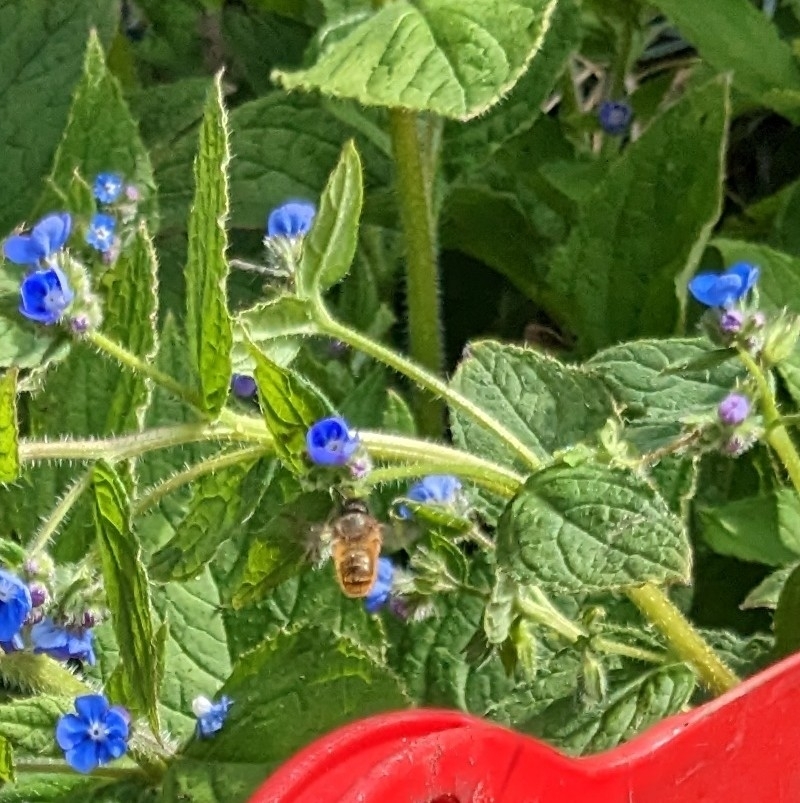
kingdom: Animalia
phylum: Arthropoda
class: Insecta
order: Hymenoptera
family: Megachilidae
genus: Osmia
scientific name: Osmia bicornis
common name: Red mason bee
